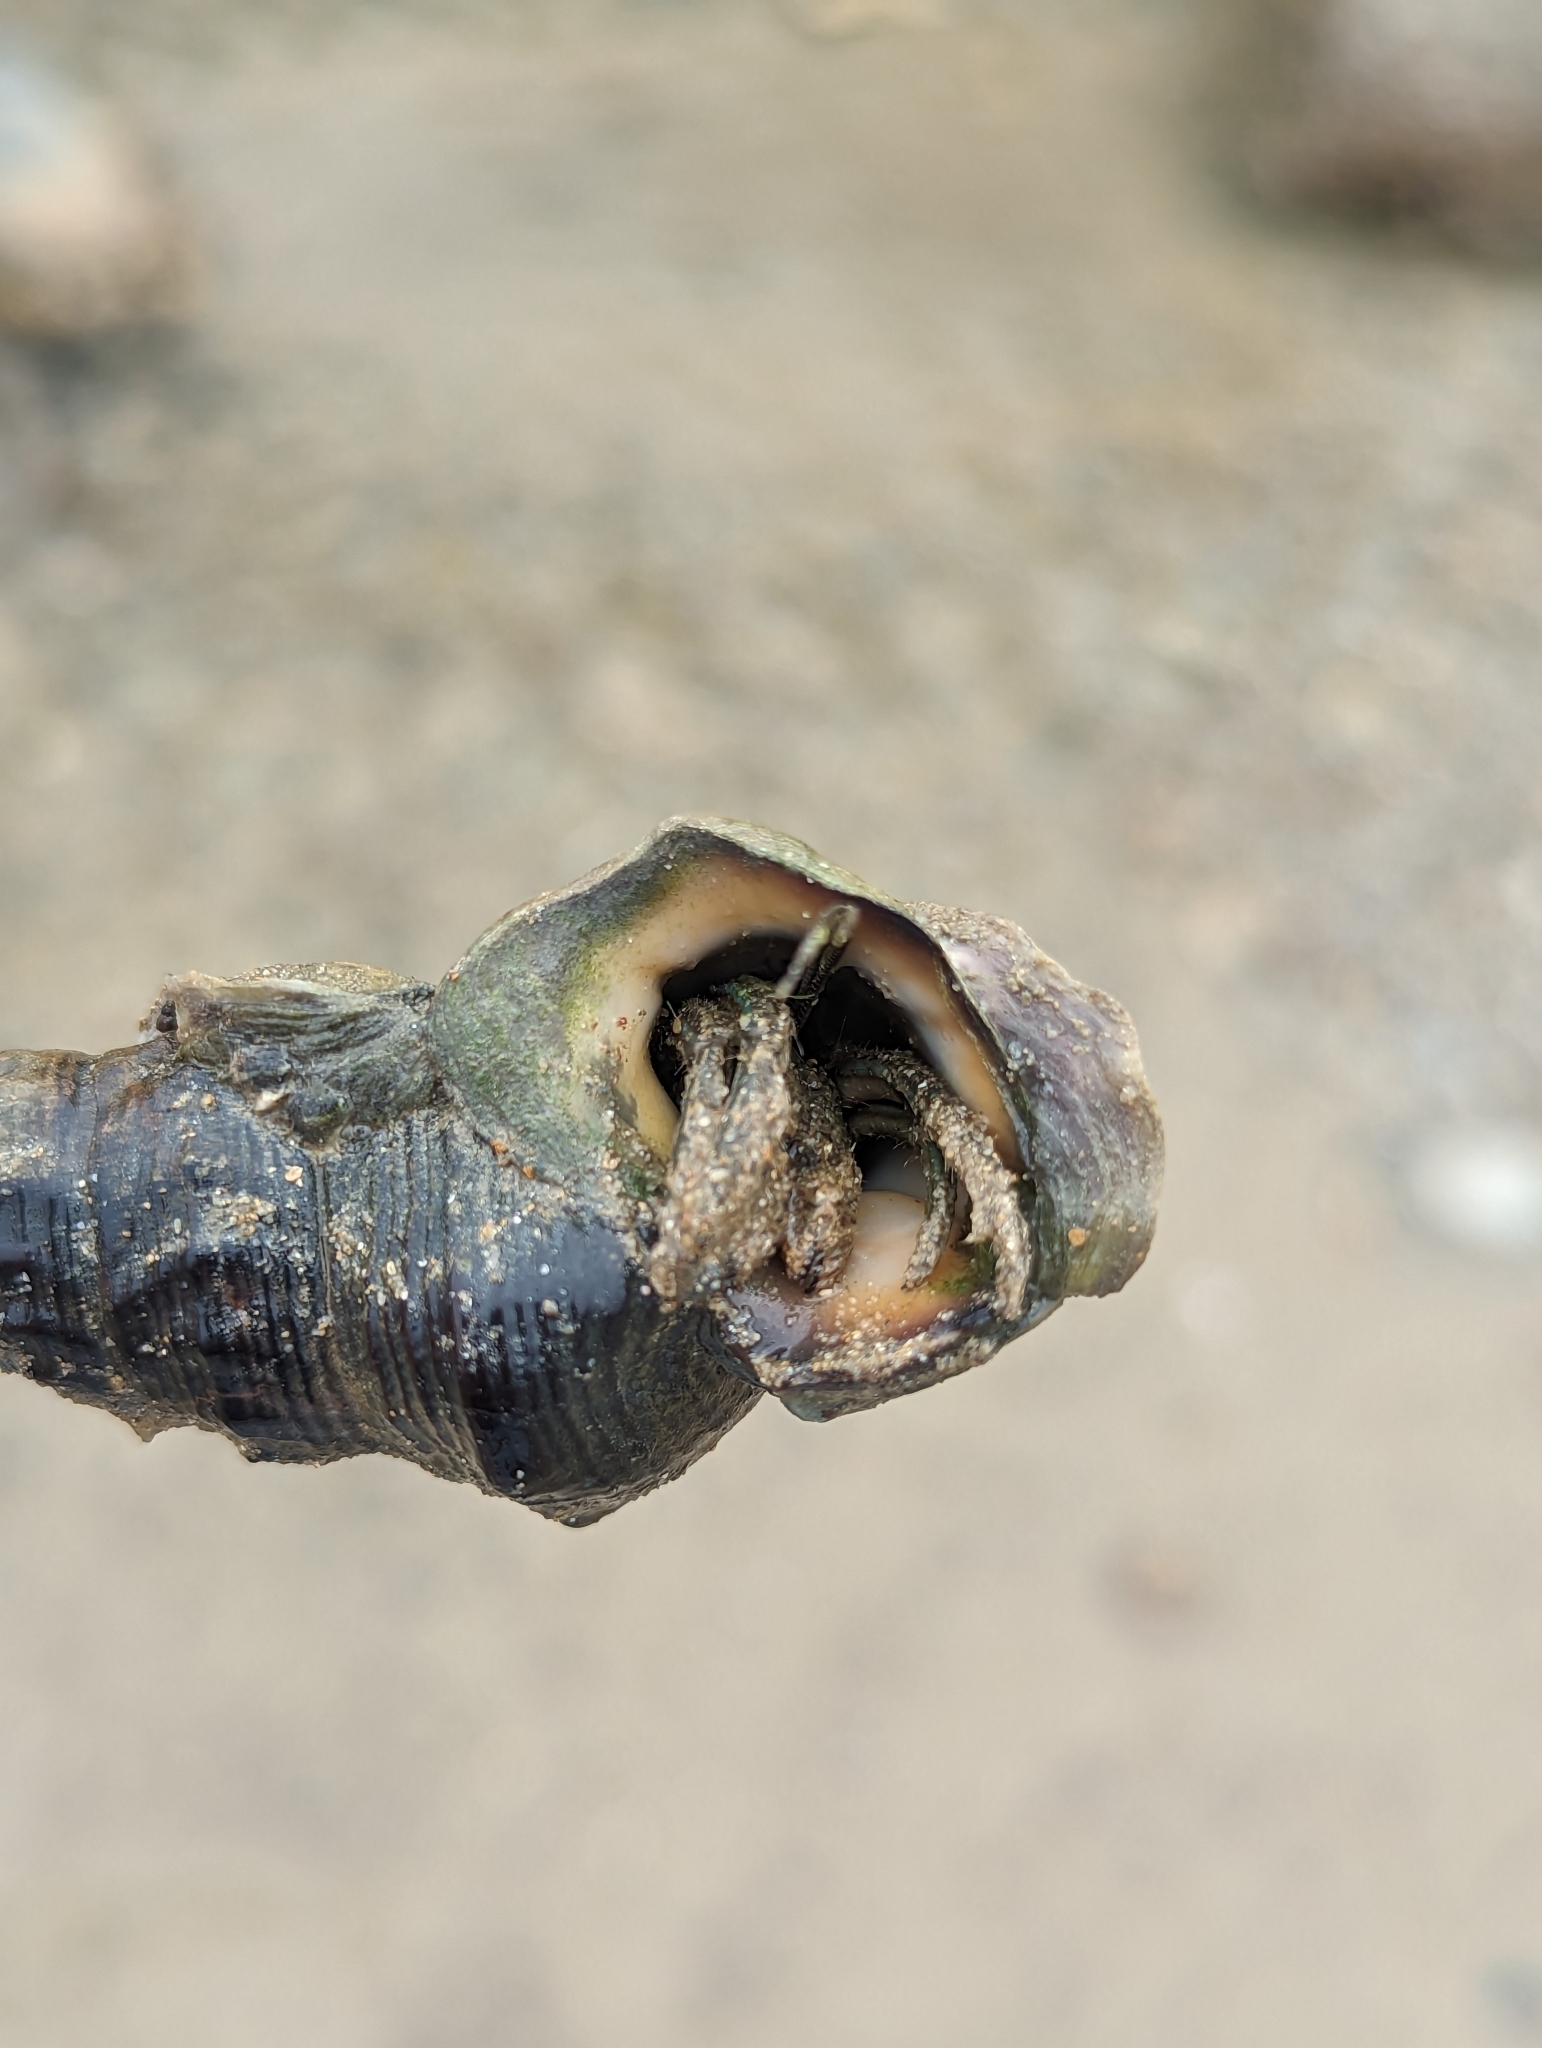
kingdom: Animalia
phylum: Mollusca
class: Gastropoda
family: Batillariidae
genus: Pyrazus
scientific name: Pyrazus ebeninus
